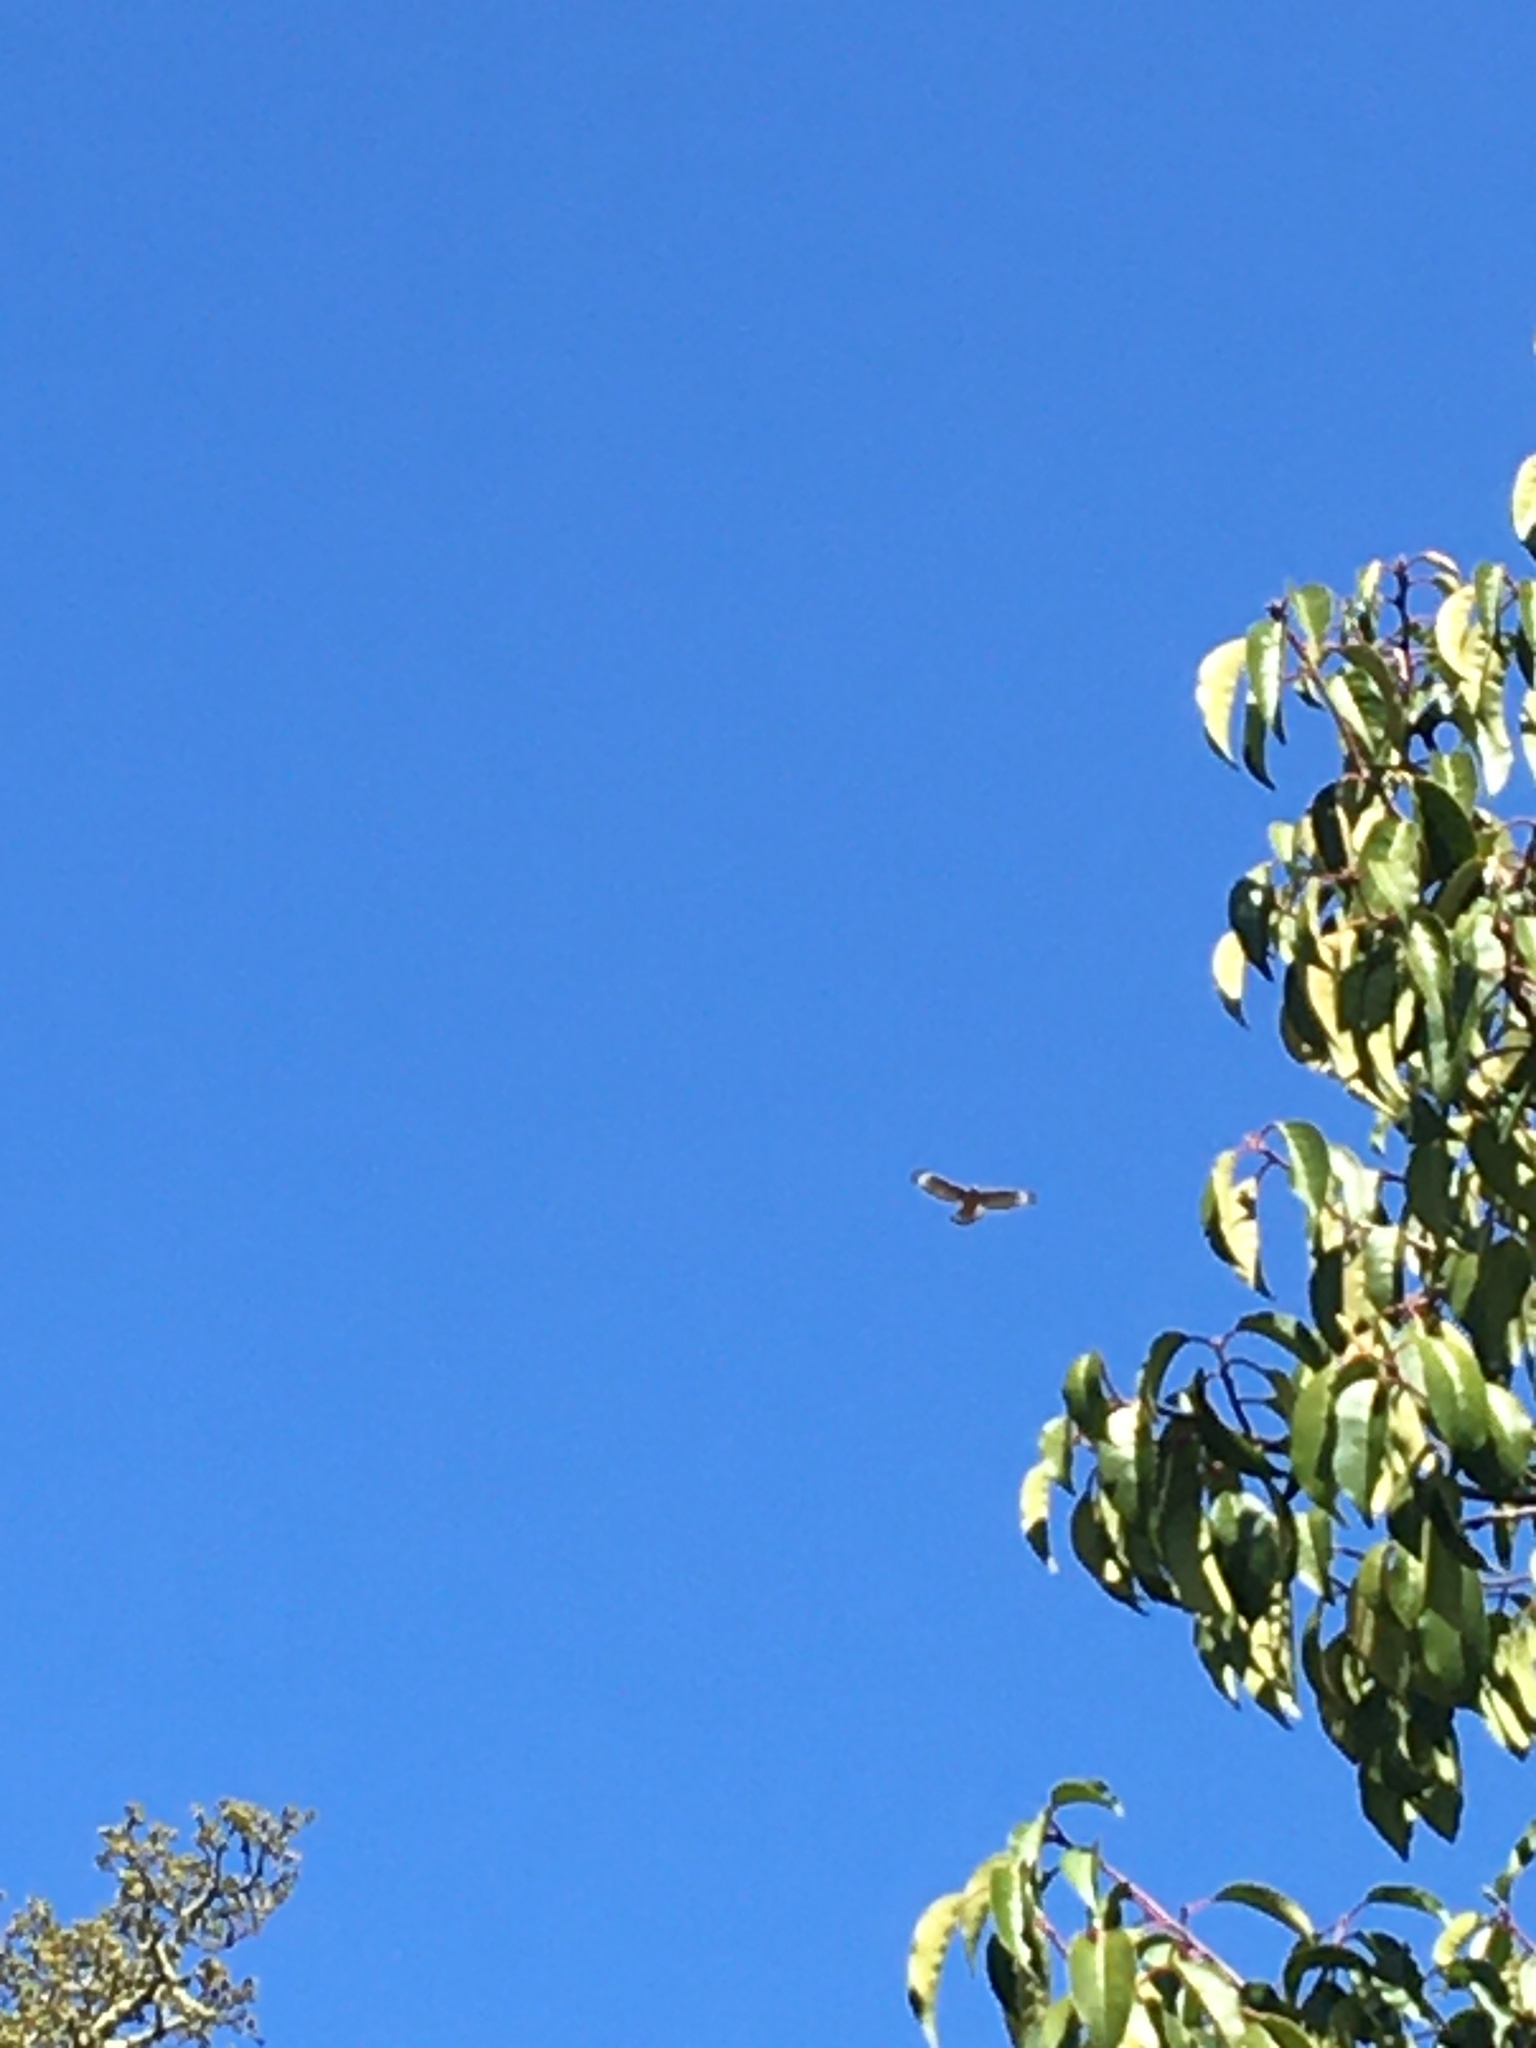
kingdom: Animalia
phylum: Chordata
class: Aves
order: Accipitriformes
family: Accipitridae
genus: Buteo
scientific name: Buteo lineatus
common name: Red-shouldered hawk
